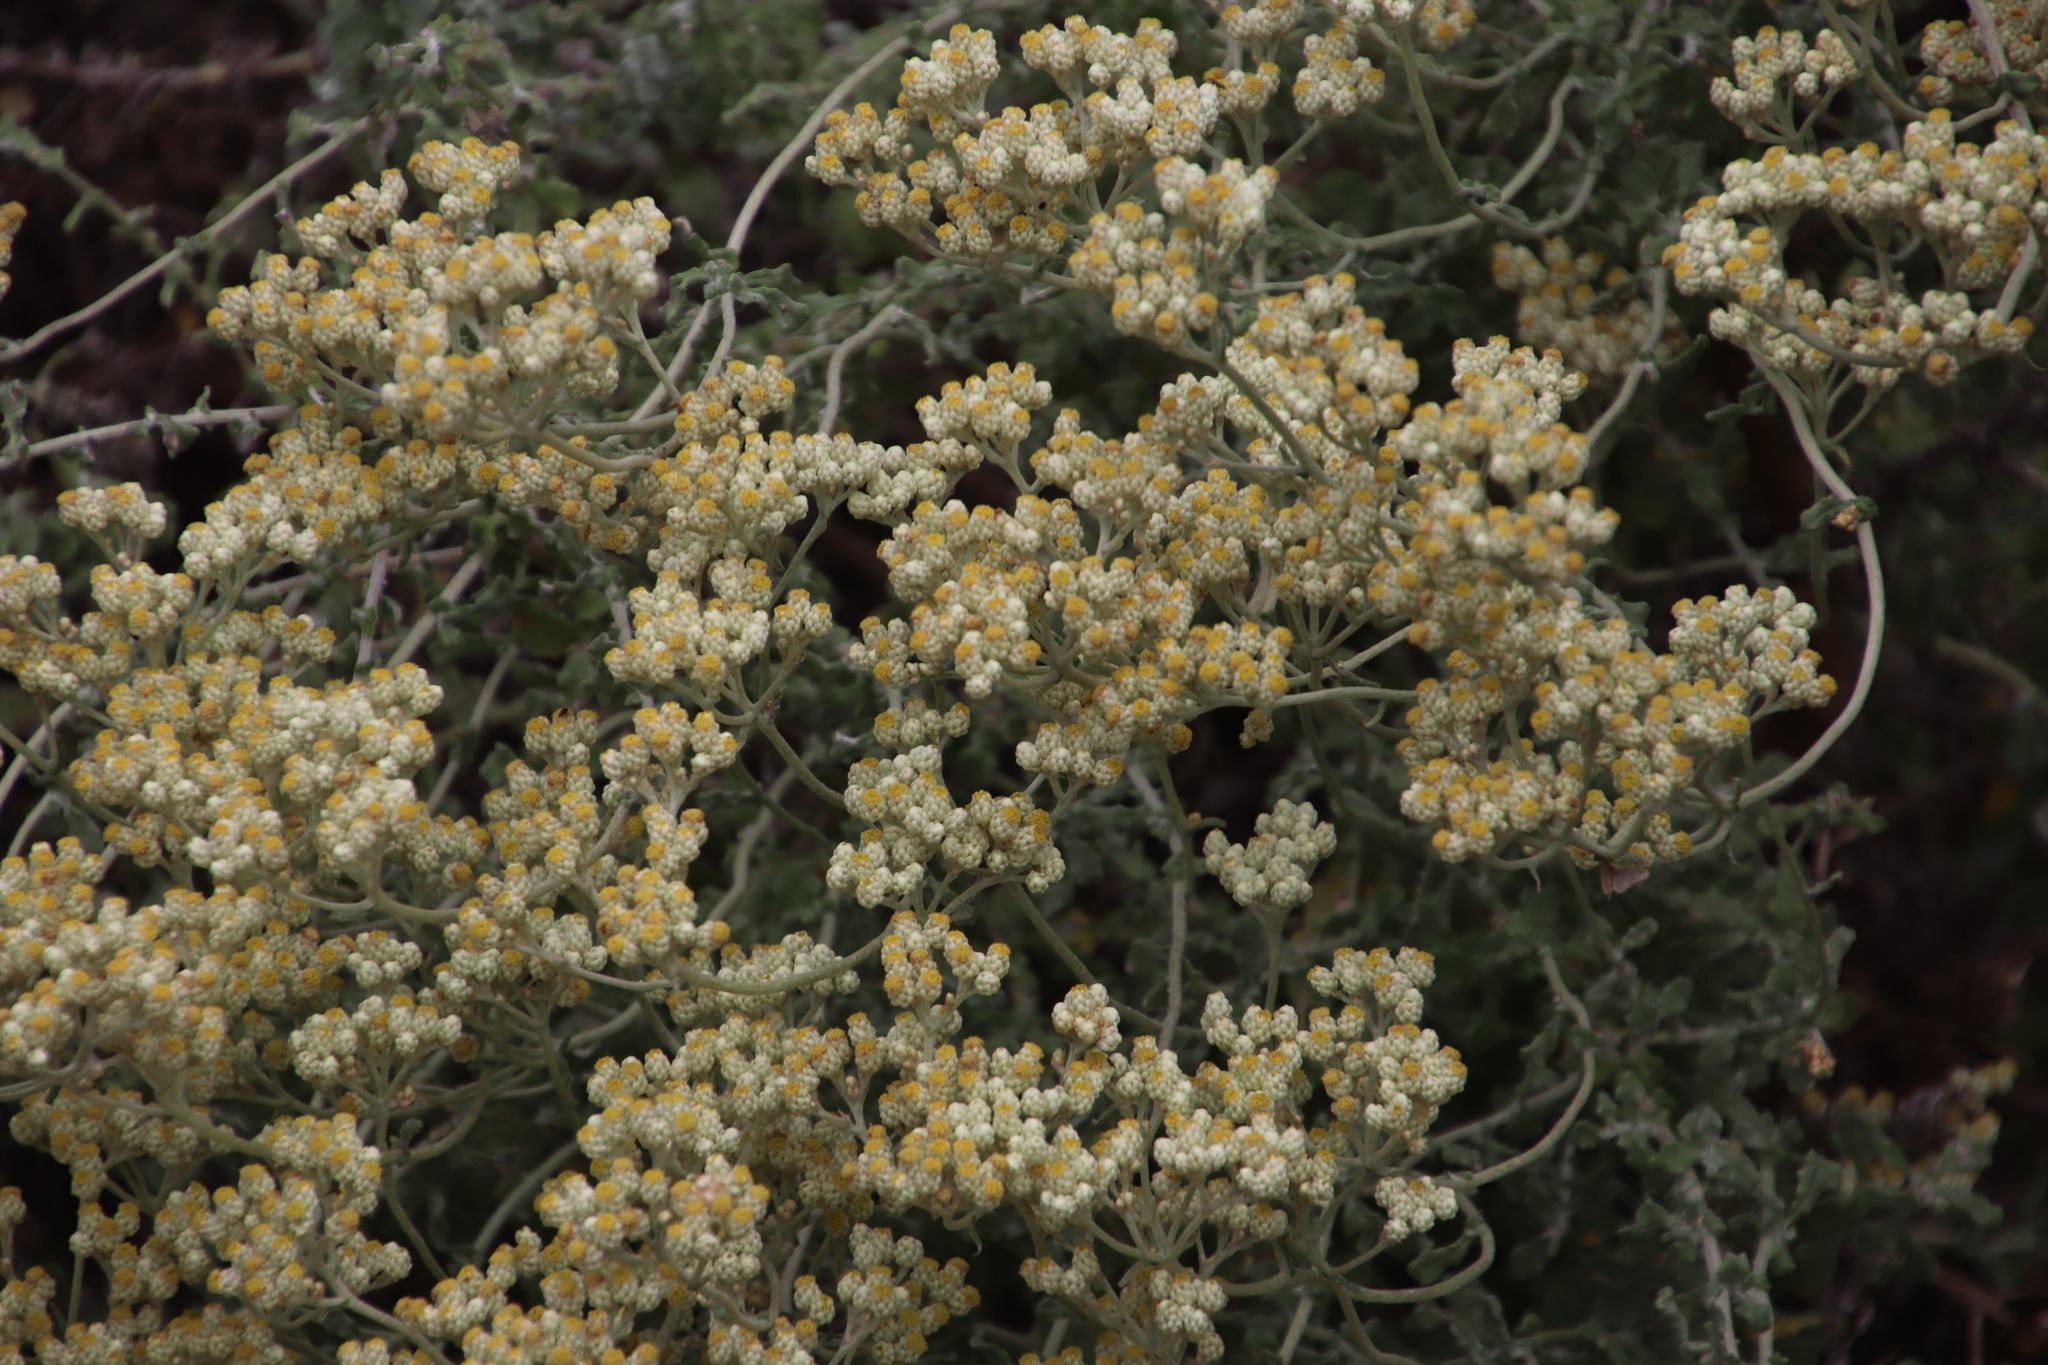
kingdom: Plantae
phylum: Tracheophyta
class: Magnoliopsida
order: Asterales
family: Asteraceae
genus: Helichrysum
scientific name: Helichrysum patulum
